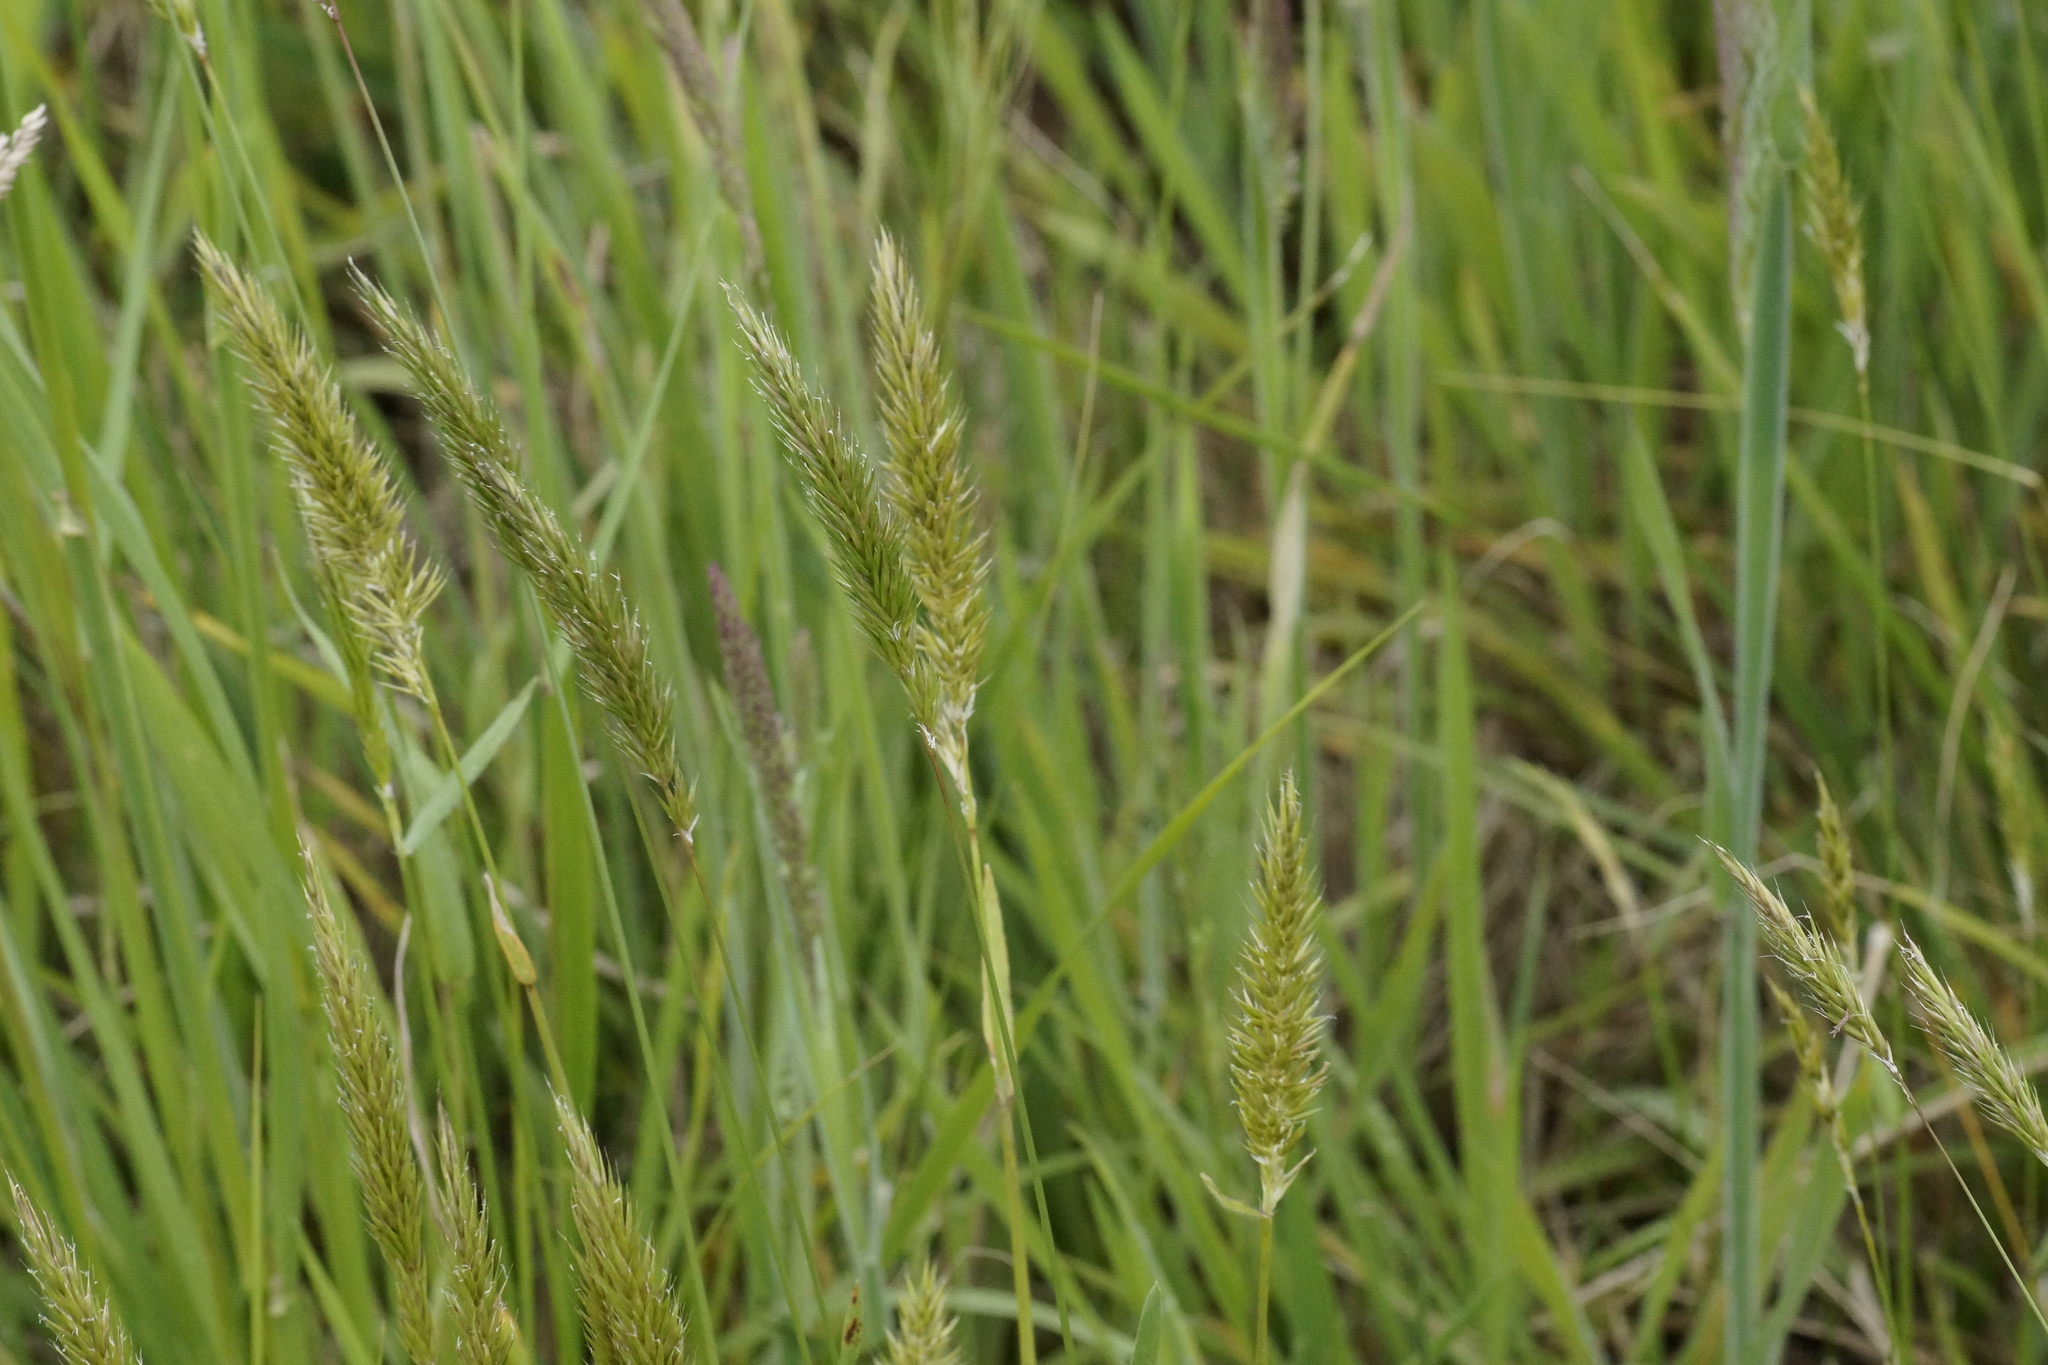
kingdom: Plantae
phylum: Tracheophyta
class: Liliopsida
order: Poales
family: Poaceae
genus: Anthoxanthum
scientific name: Anthoxanthum odoratum
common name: Sweet vernalgrass
